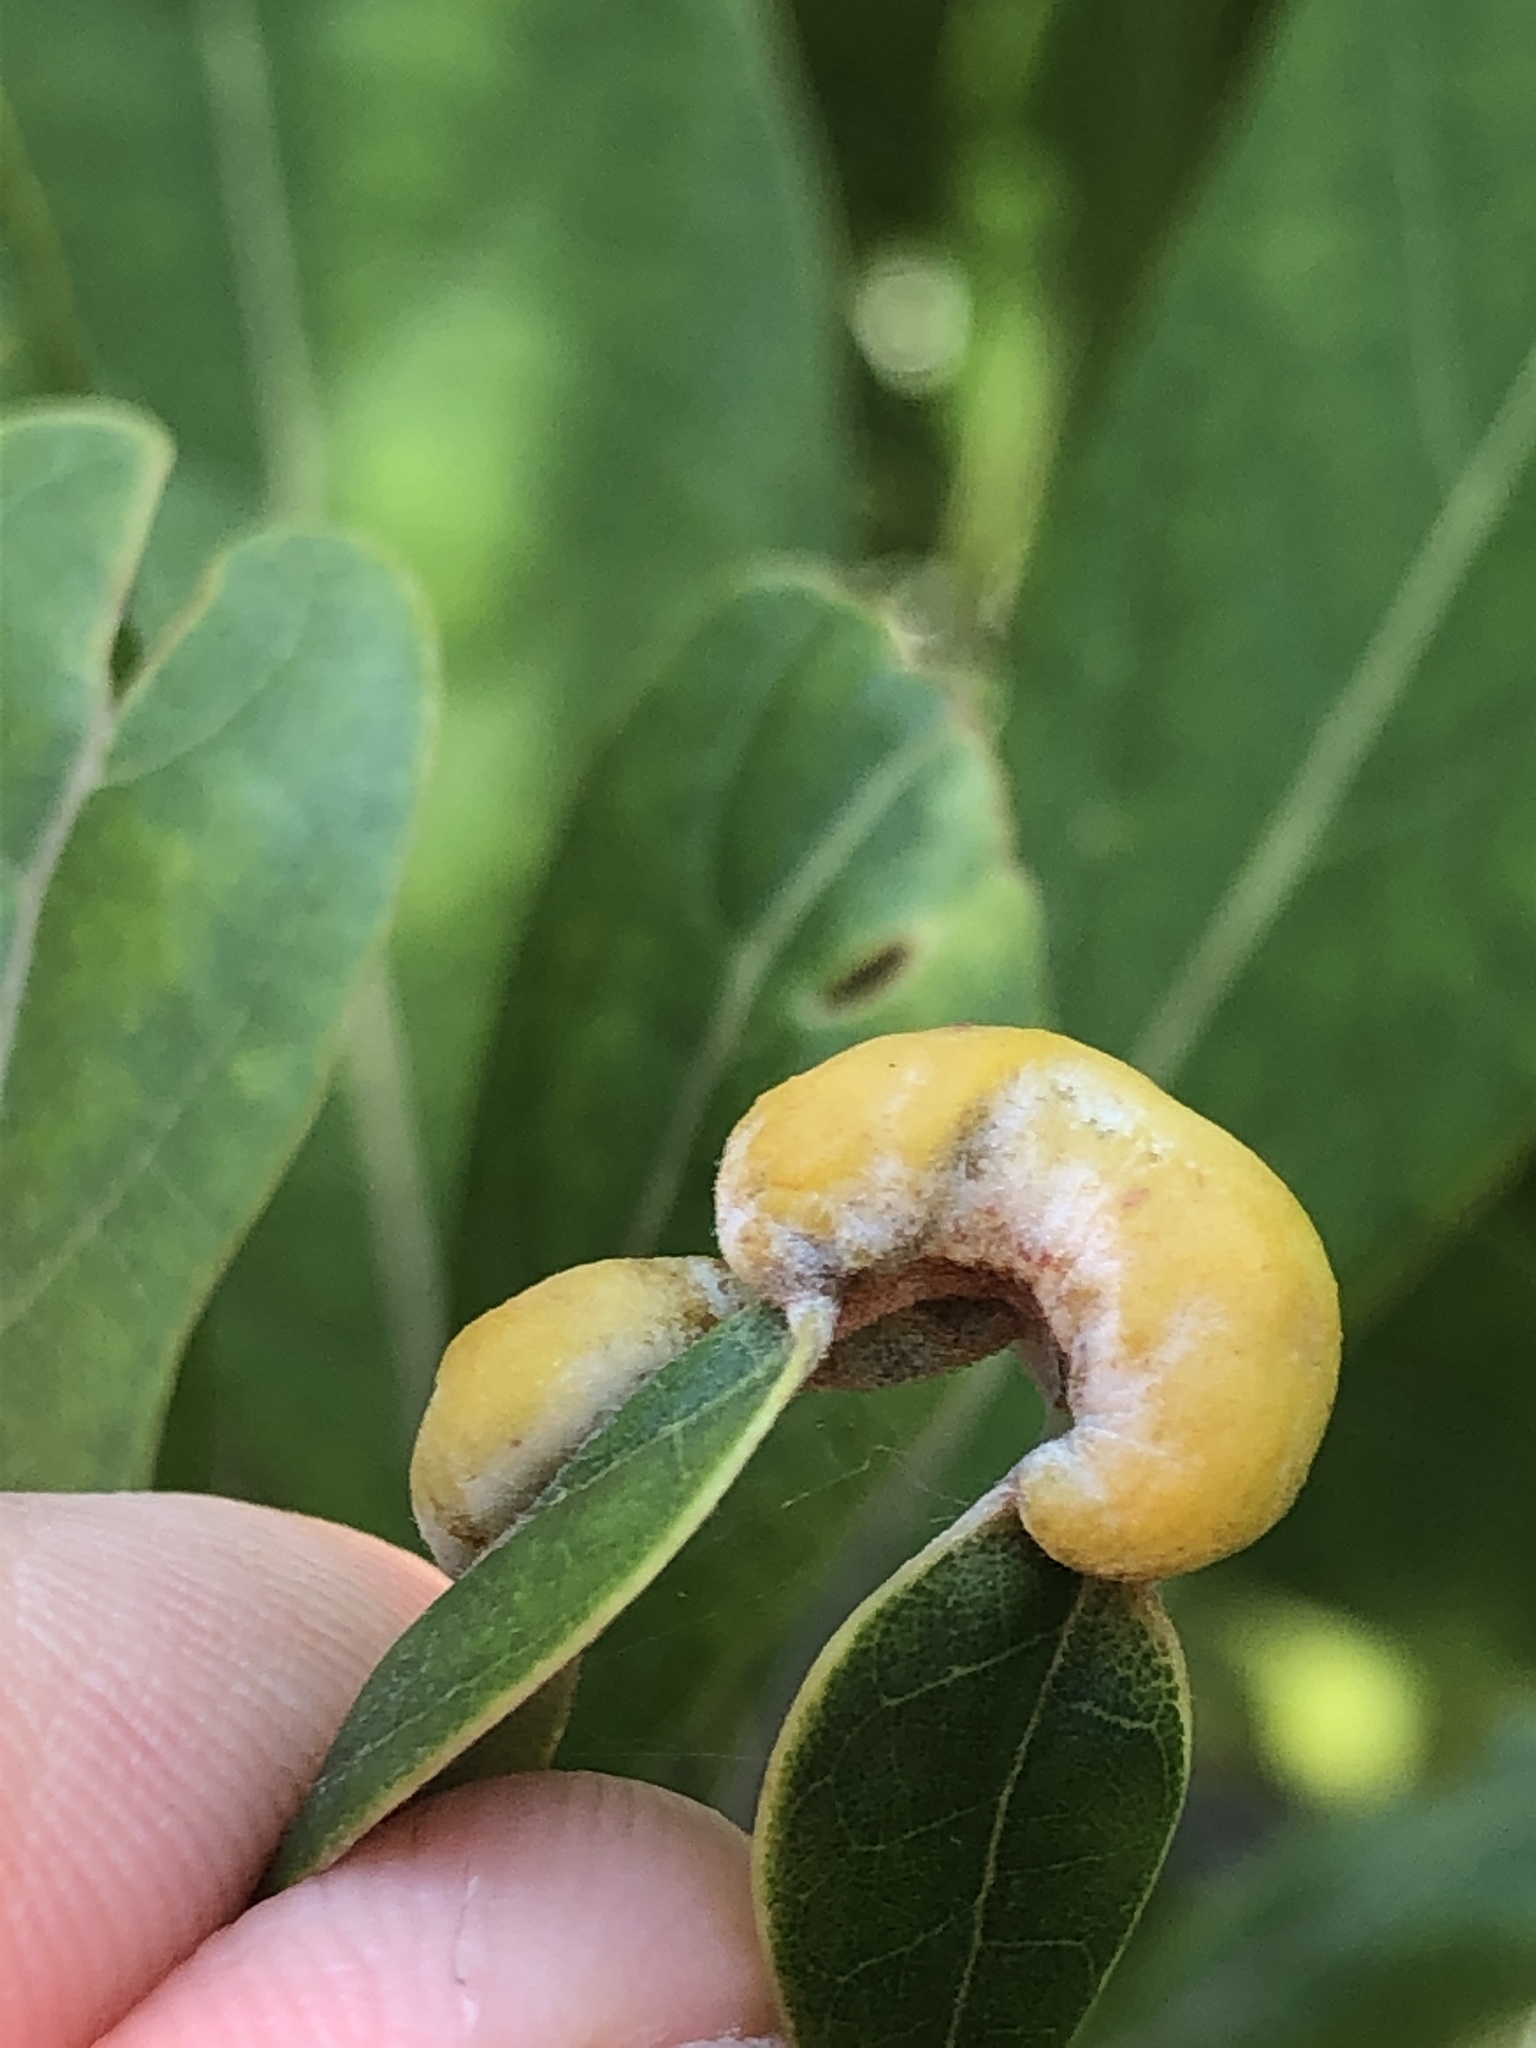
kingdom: Animalia
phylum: Arthropoda
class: Insecta
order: Hemiptera
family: Triozidae
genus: Trioza
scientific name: Trioza magnoliae
